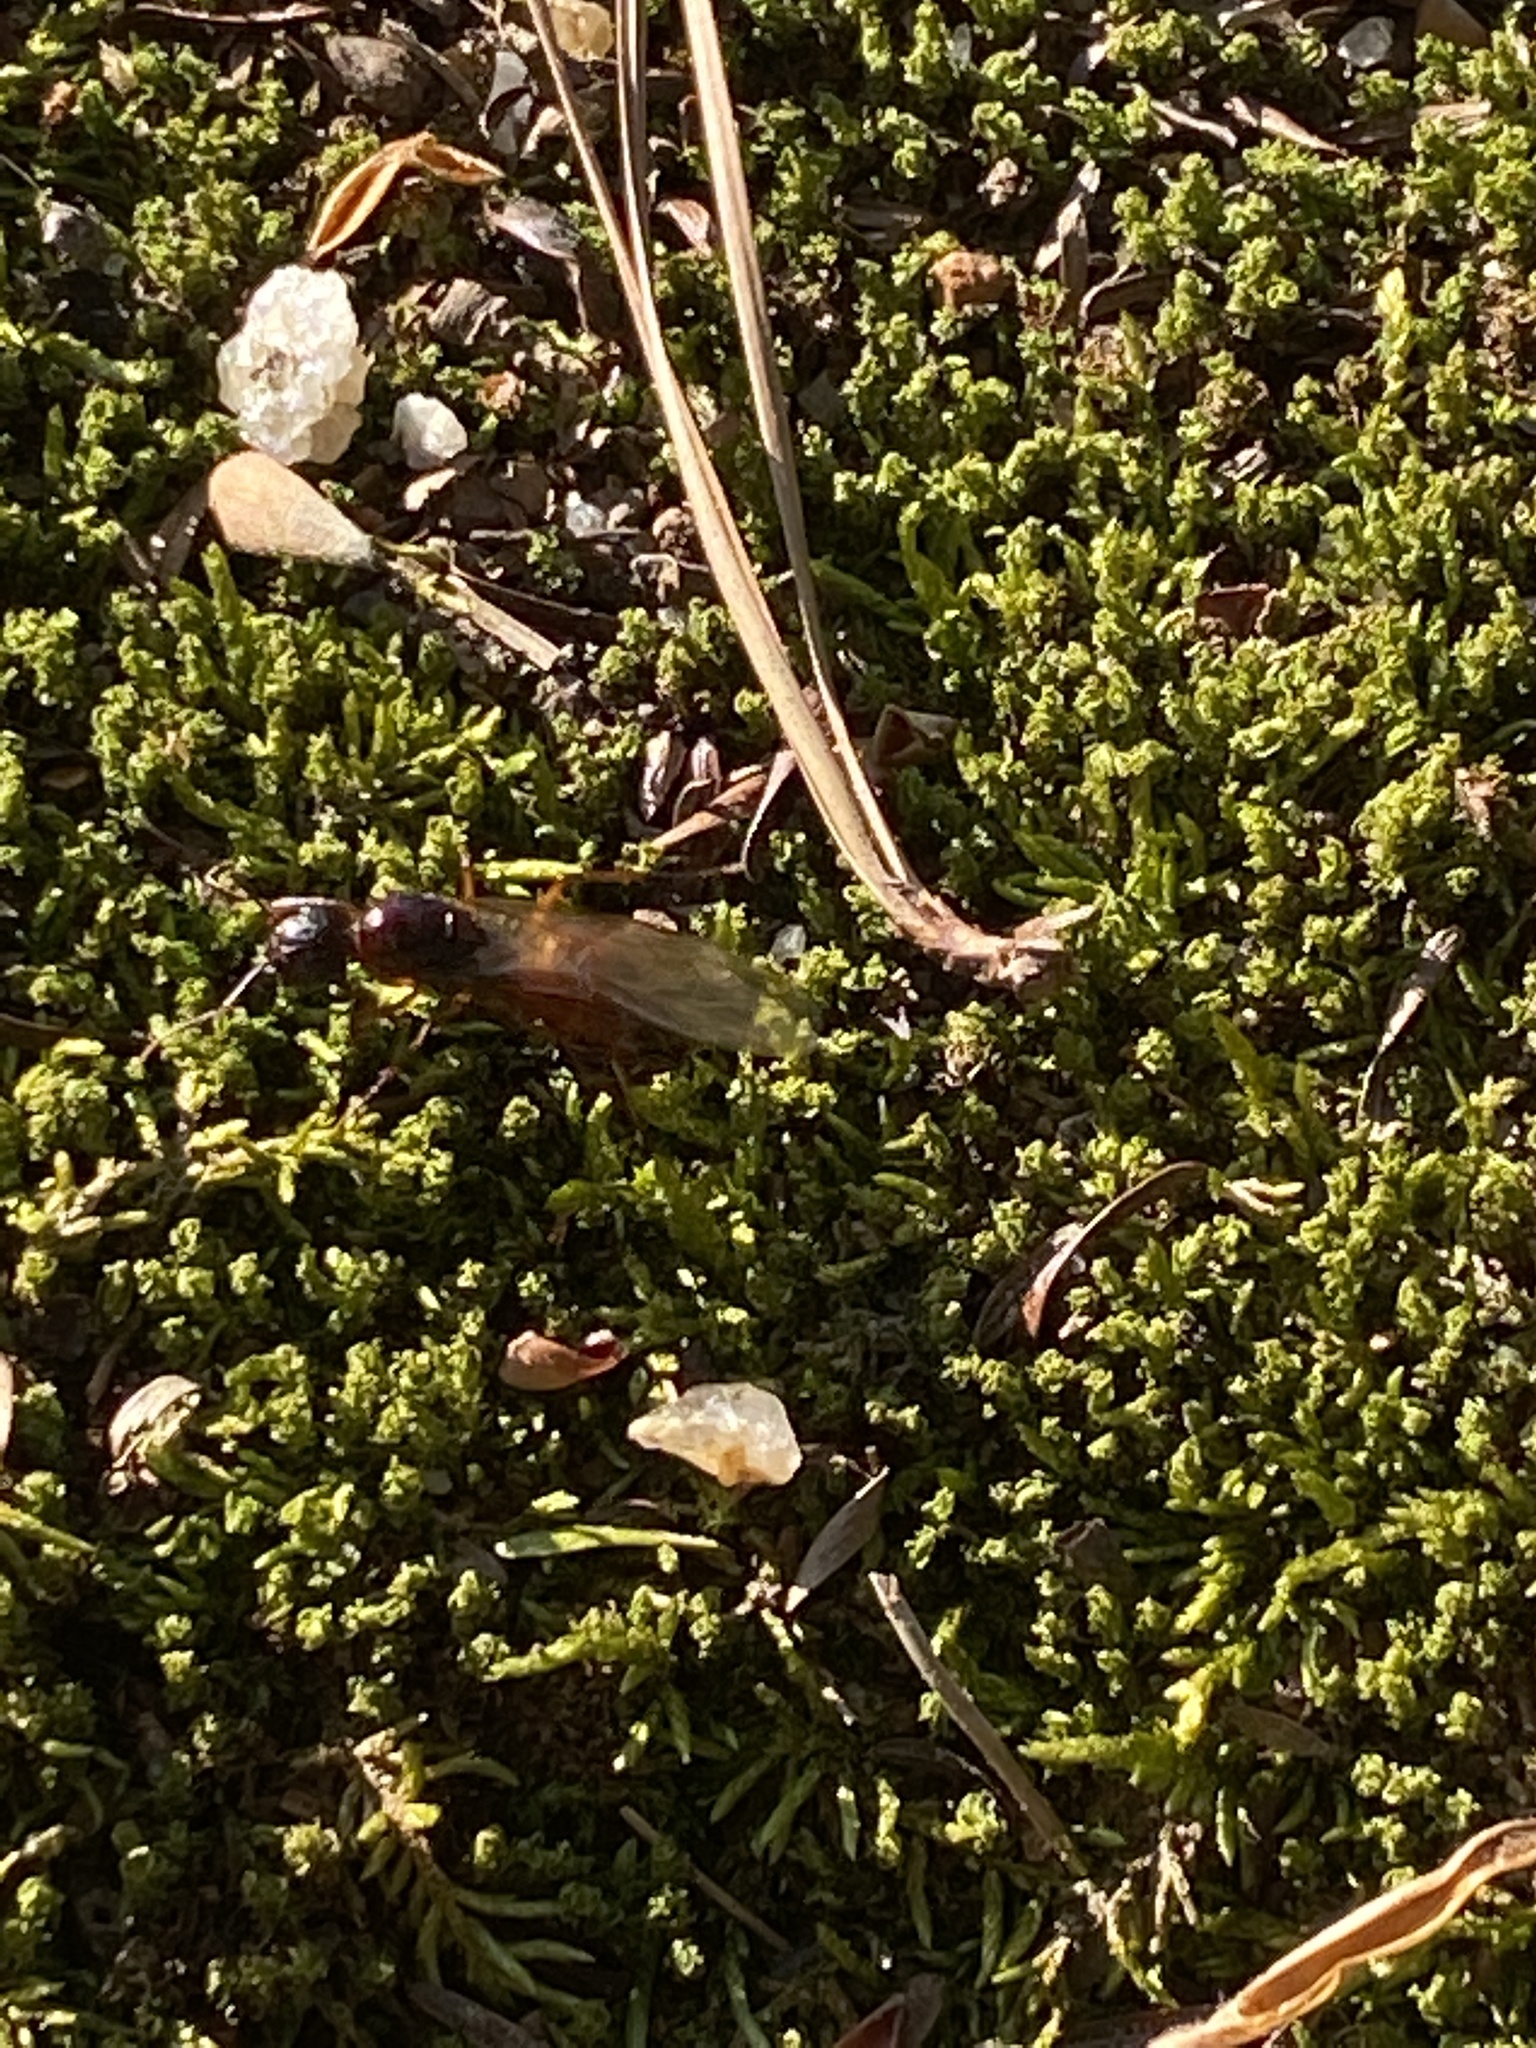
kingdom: Animalia
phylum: Arthropoda
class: Insecta
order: Hymenoptera
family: Formicidae
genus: Camponotus
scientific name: Camponotus americanus
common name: American carpenter ant
